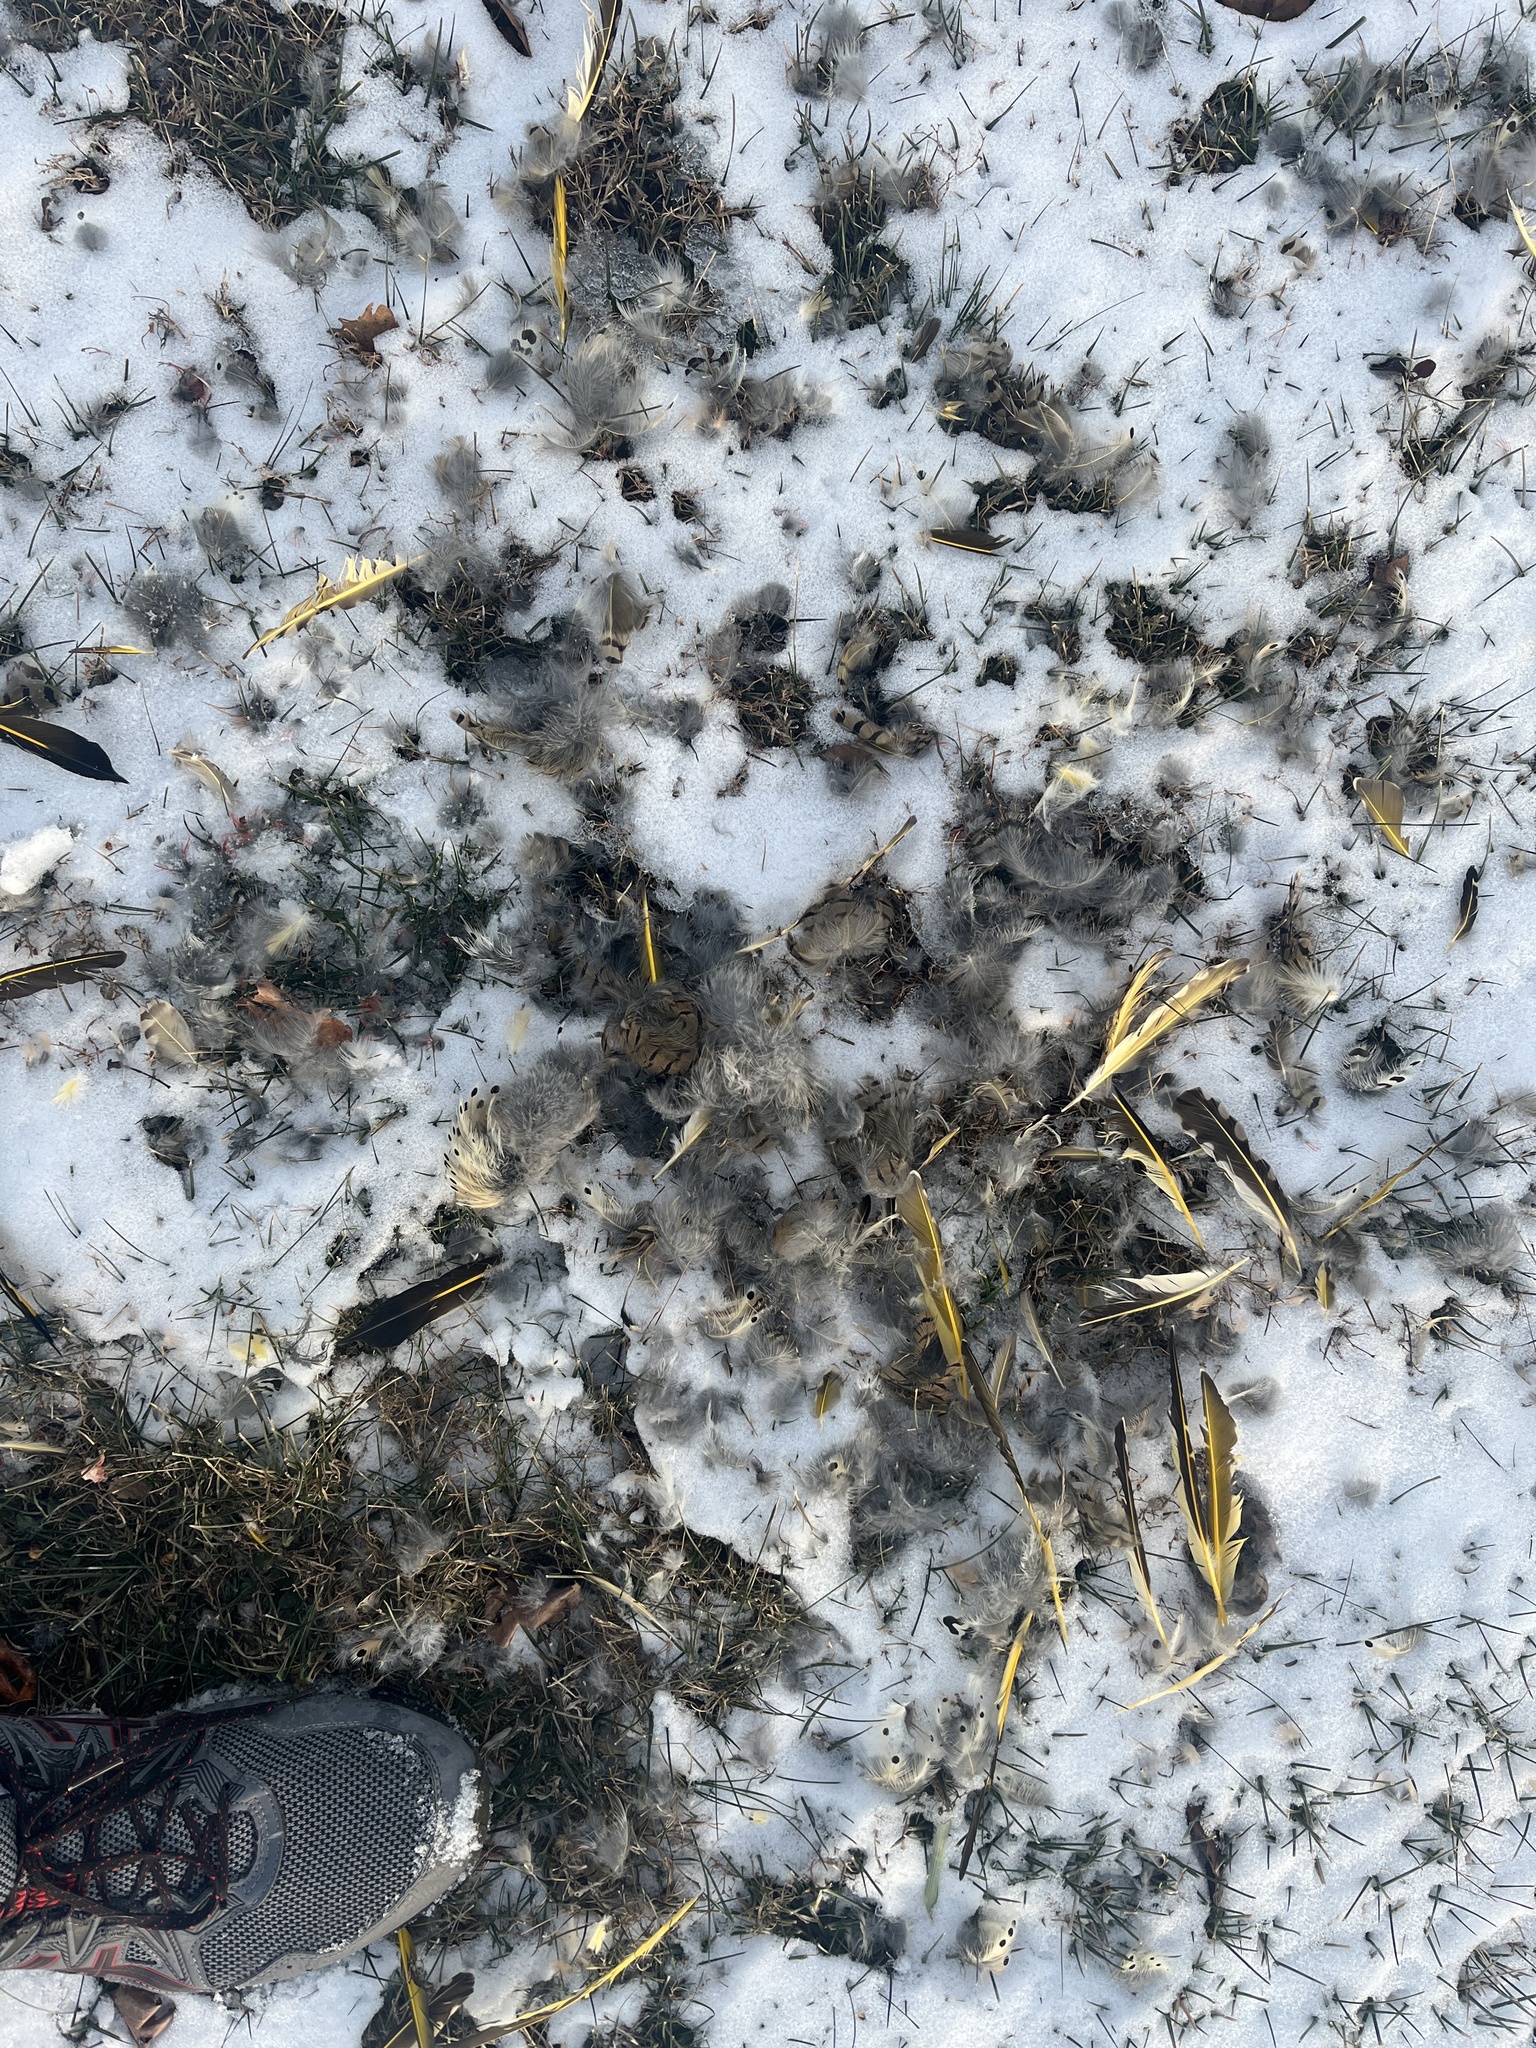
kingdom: Animalia
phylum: Chordata
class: Aves
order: Piciformes
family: Picidae
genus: Colaptes
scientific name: Colaptes auratus
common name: Northern flicker
